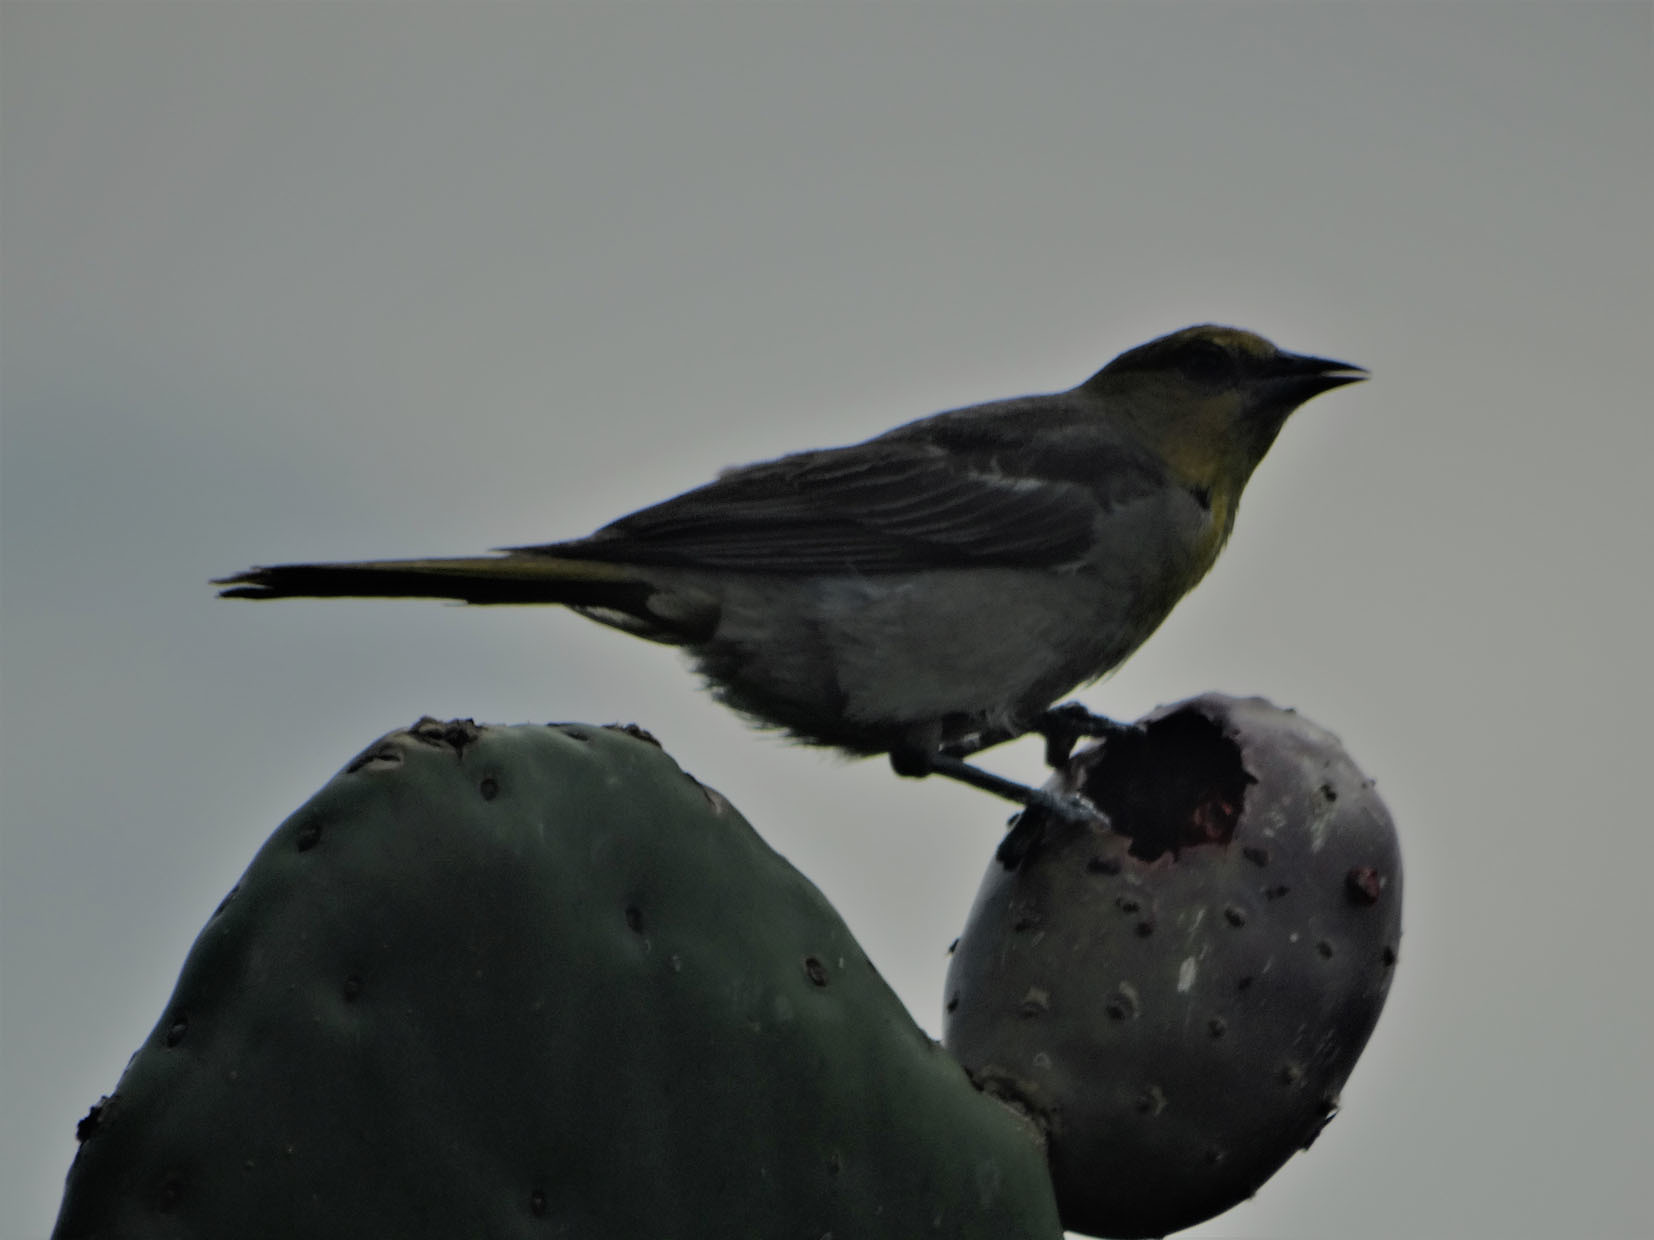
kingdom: Animalia
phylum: Chordata
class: Aves
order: Passeriformes
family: Icteridae
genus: Icterus
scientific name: Icterus abeillei
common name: Black-backed oriole
